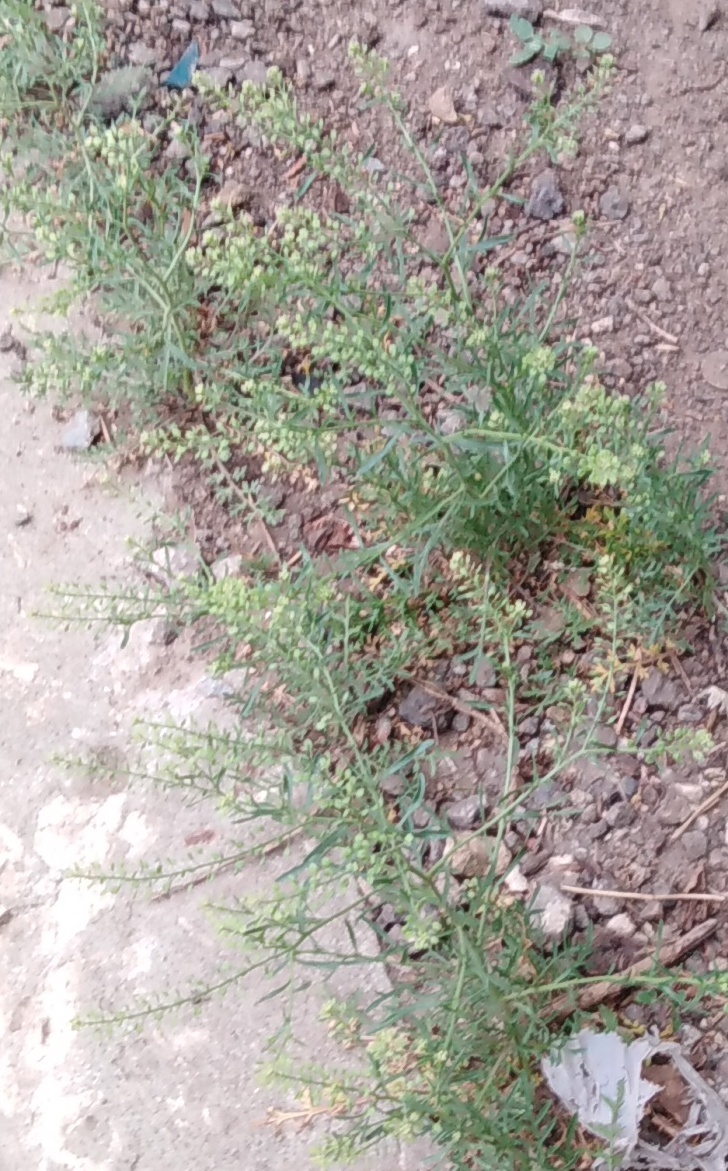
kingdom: Plantae
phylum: Tracheophyta
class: Magnoliopsida
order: Brassicales
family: Brassicaceae
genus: Lepidium
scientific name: Lepidium ruderale
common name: Narrow-leaved pepperwort
